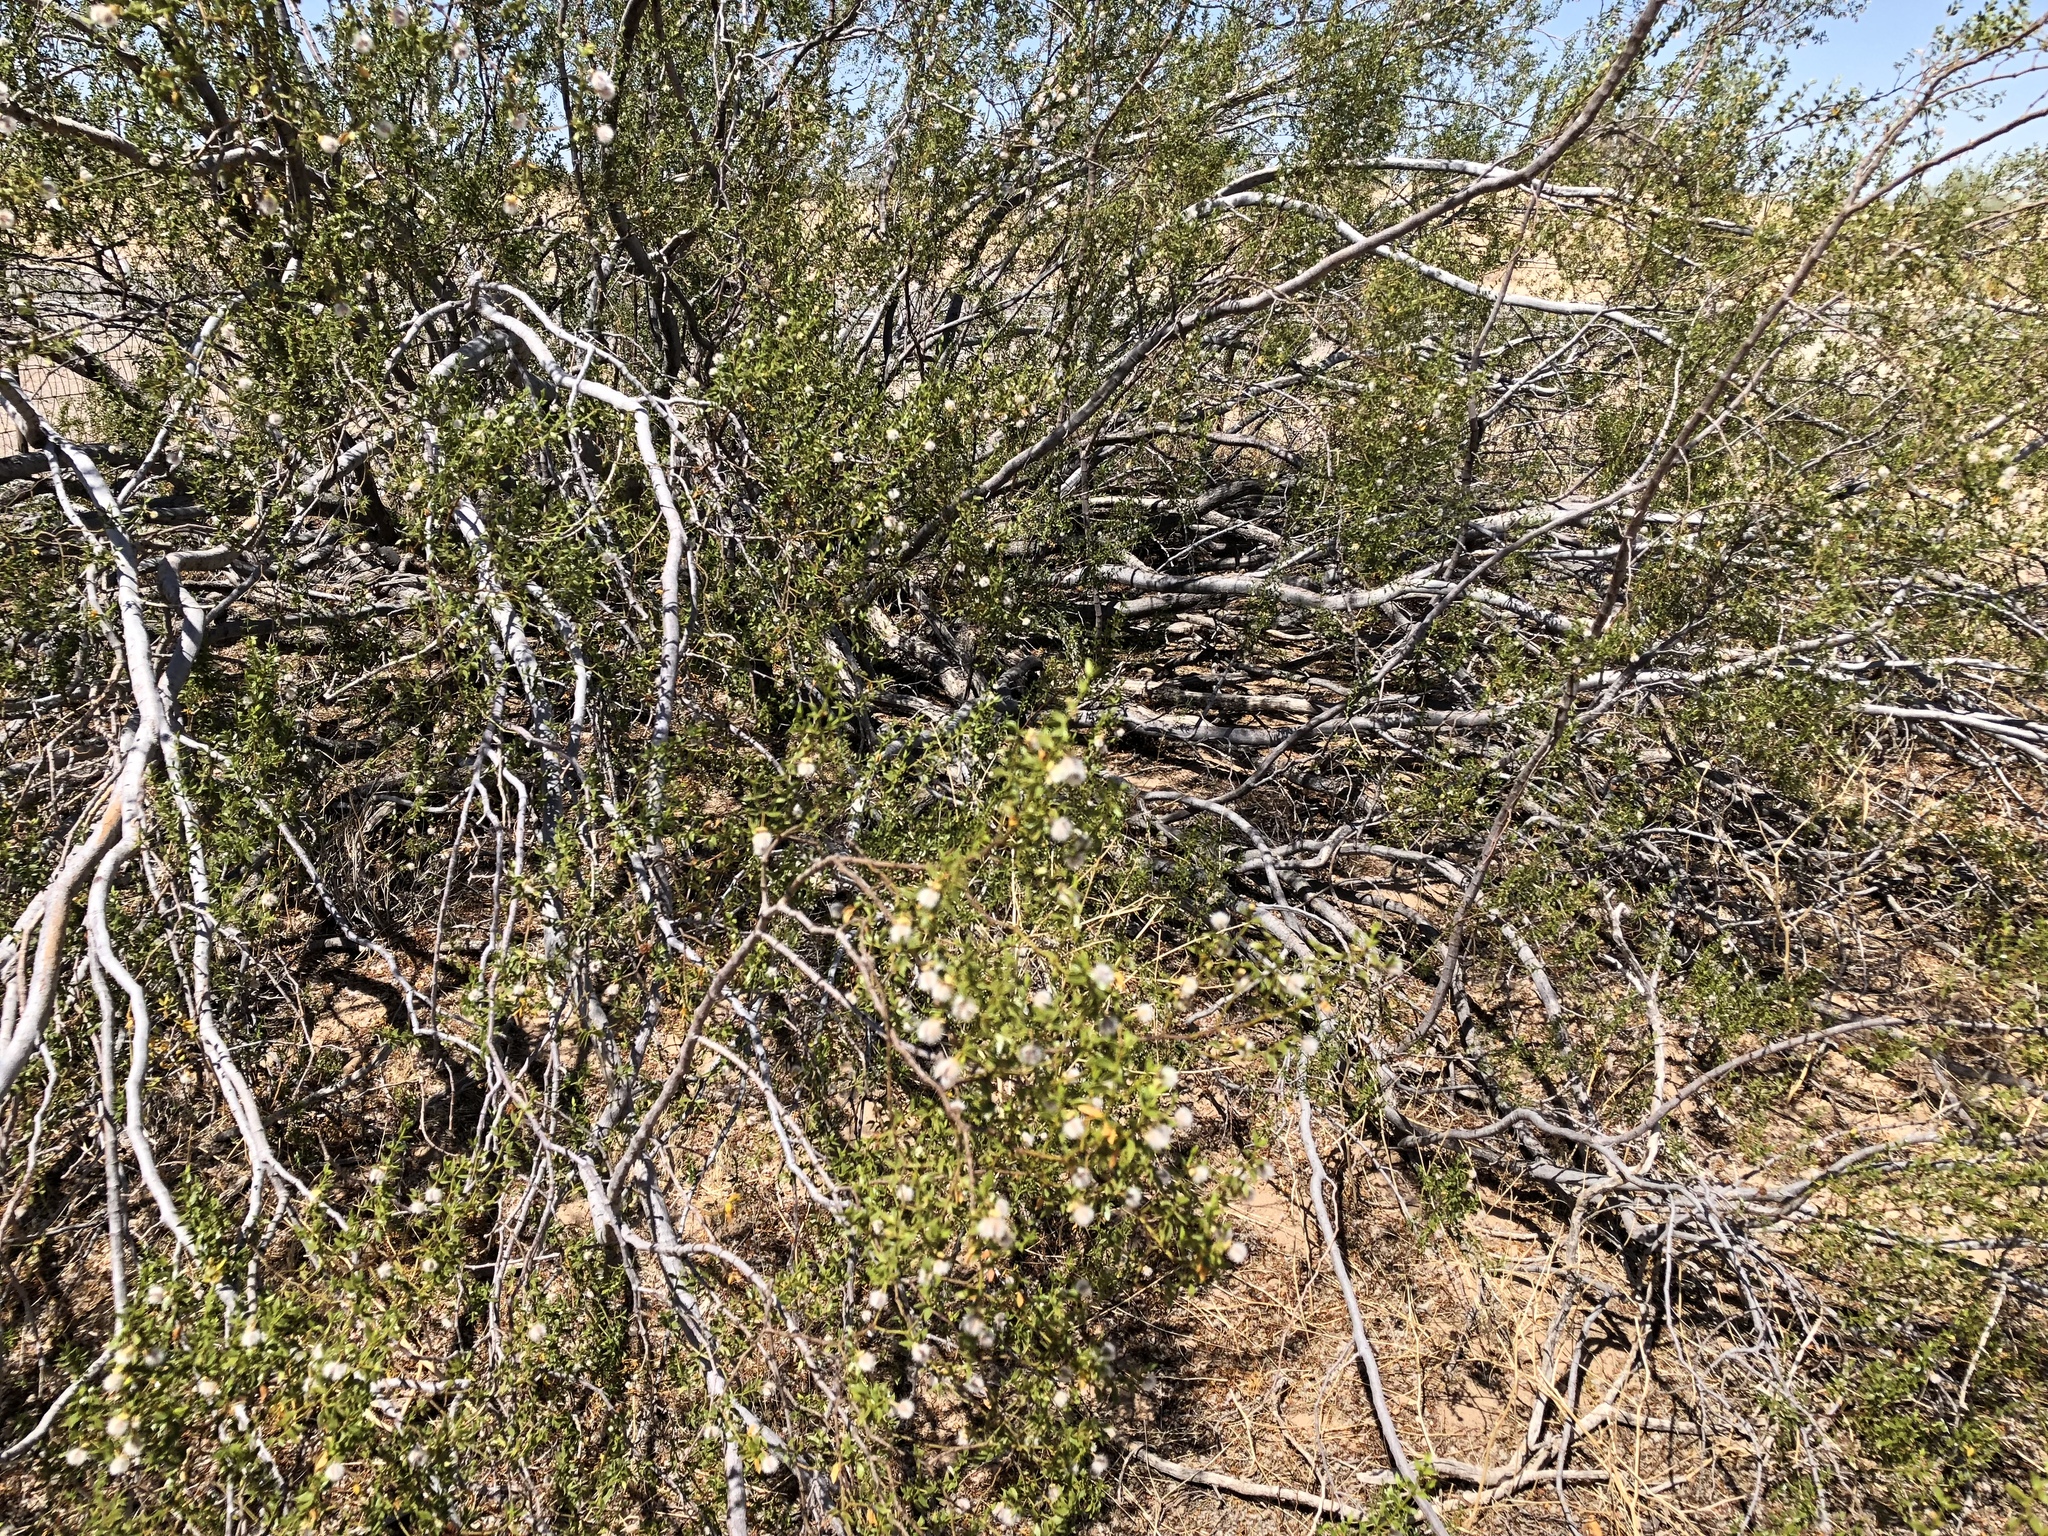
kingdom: Plantae
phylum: Tracheophyta
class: Magnoliopsida
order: Zygophyllales
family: Zygophyllaceae
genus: Larrea
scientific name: Larrea tridentata
